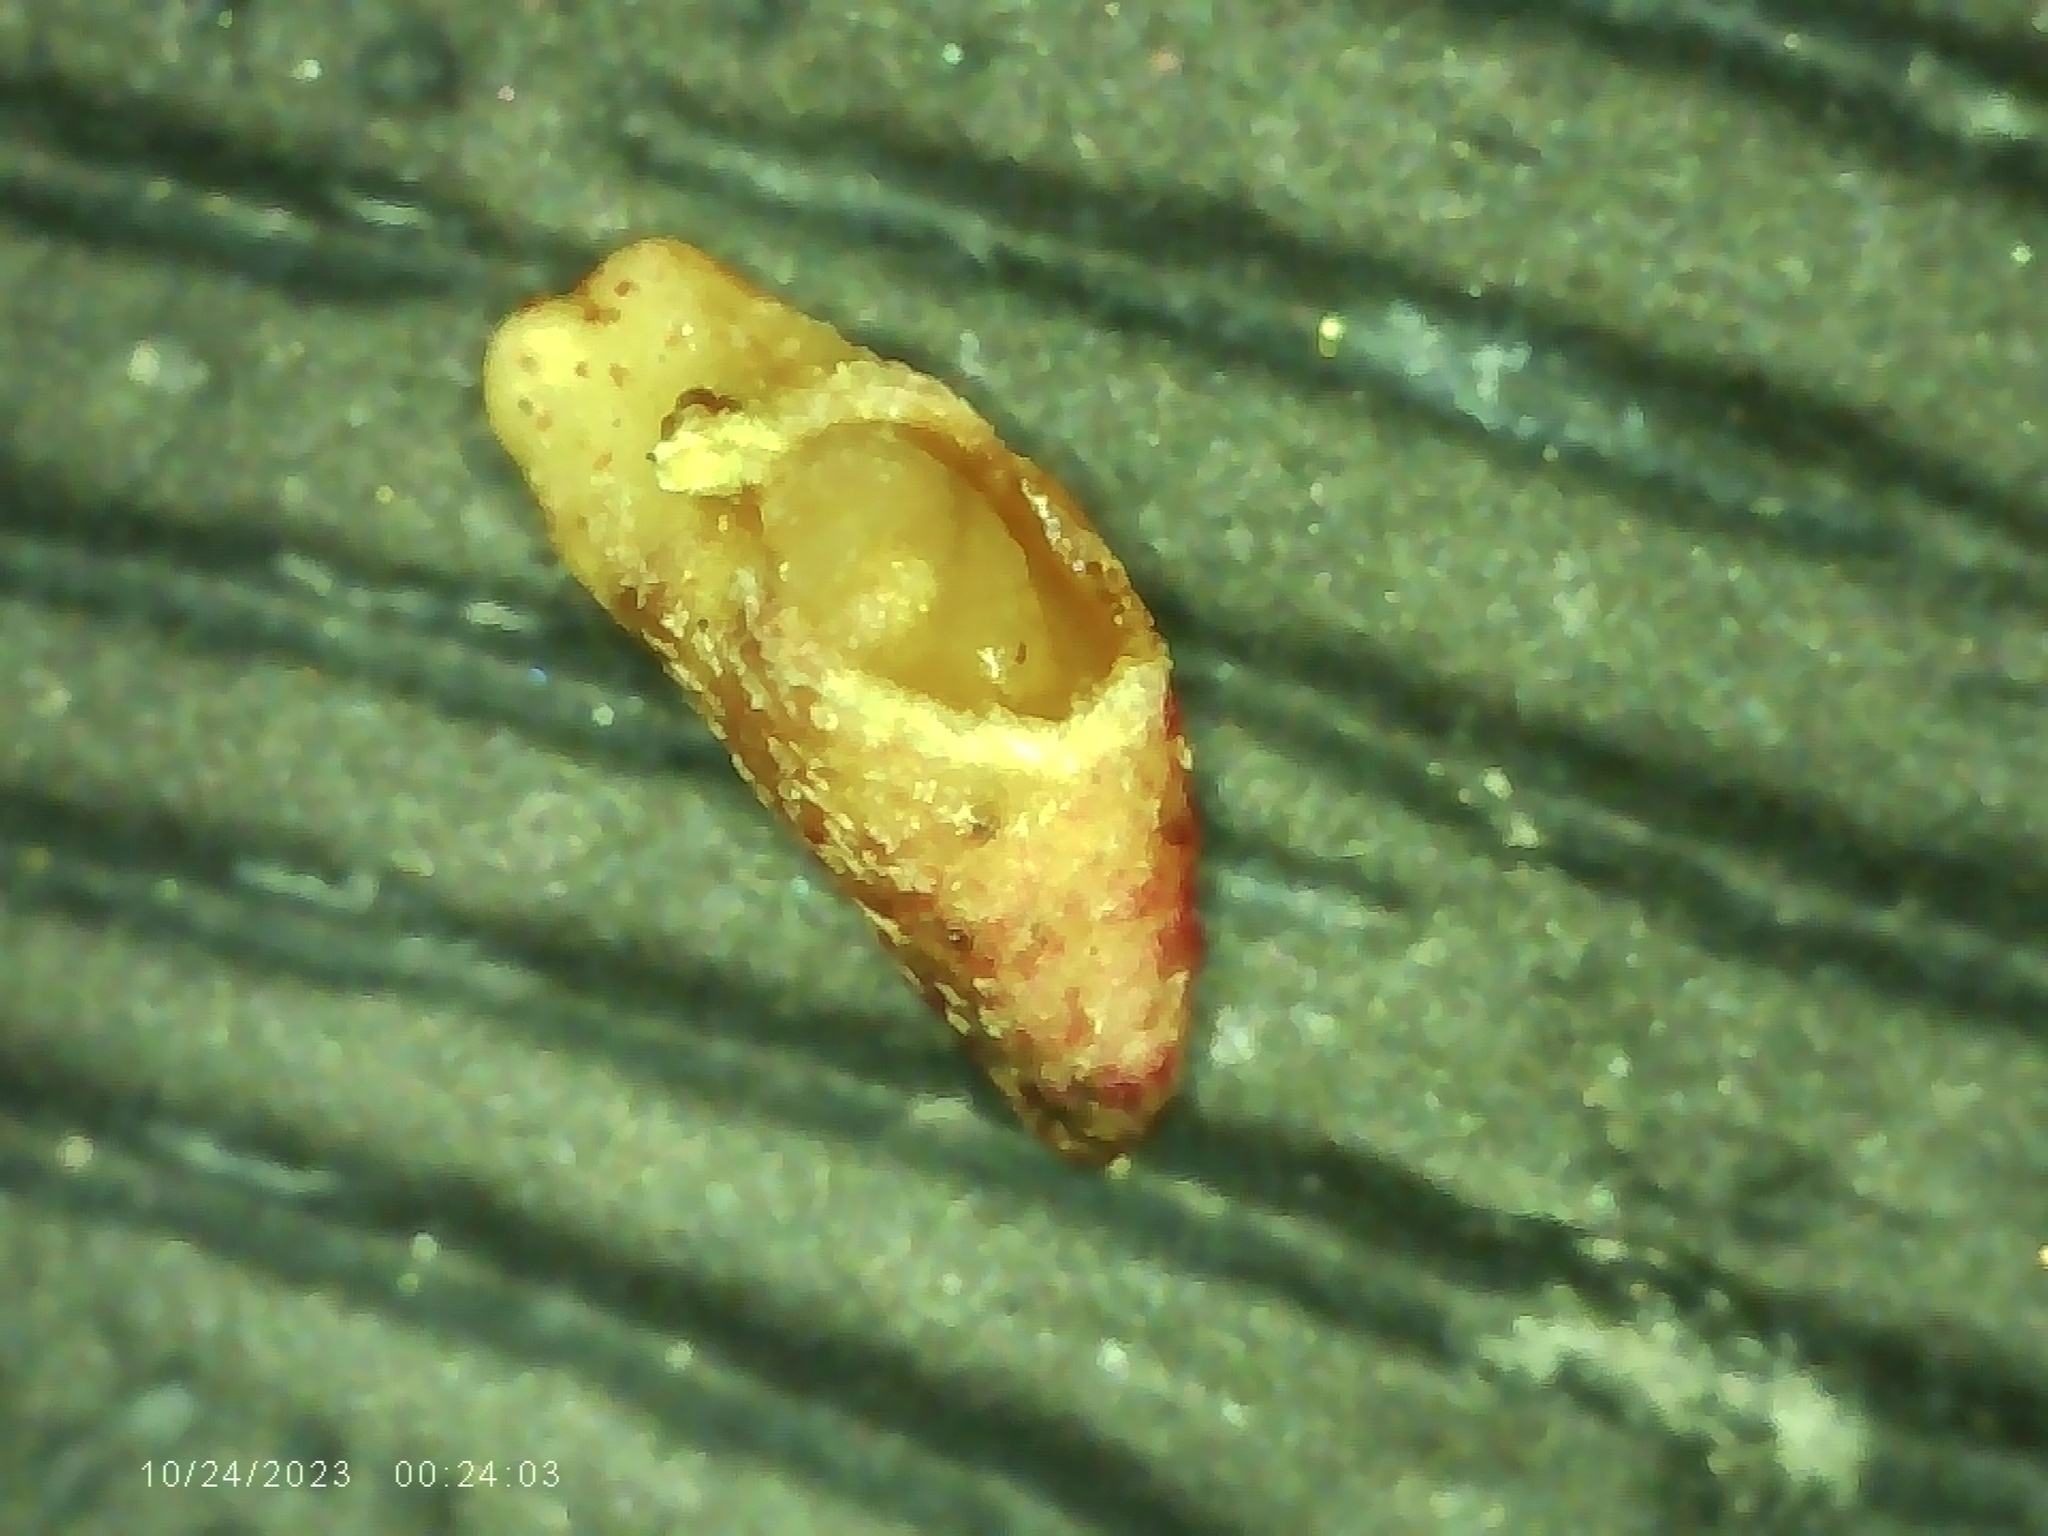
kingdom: Animalia
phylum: Arthropoda
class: Insecta
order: Hymenoptera
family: Cynipidae
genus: Zopheroteras
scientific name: Zopheroteras
